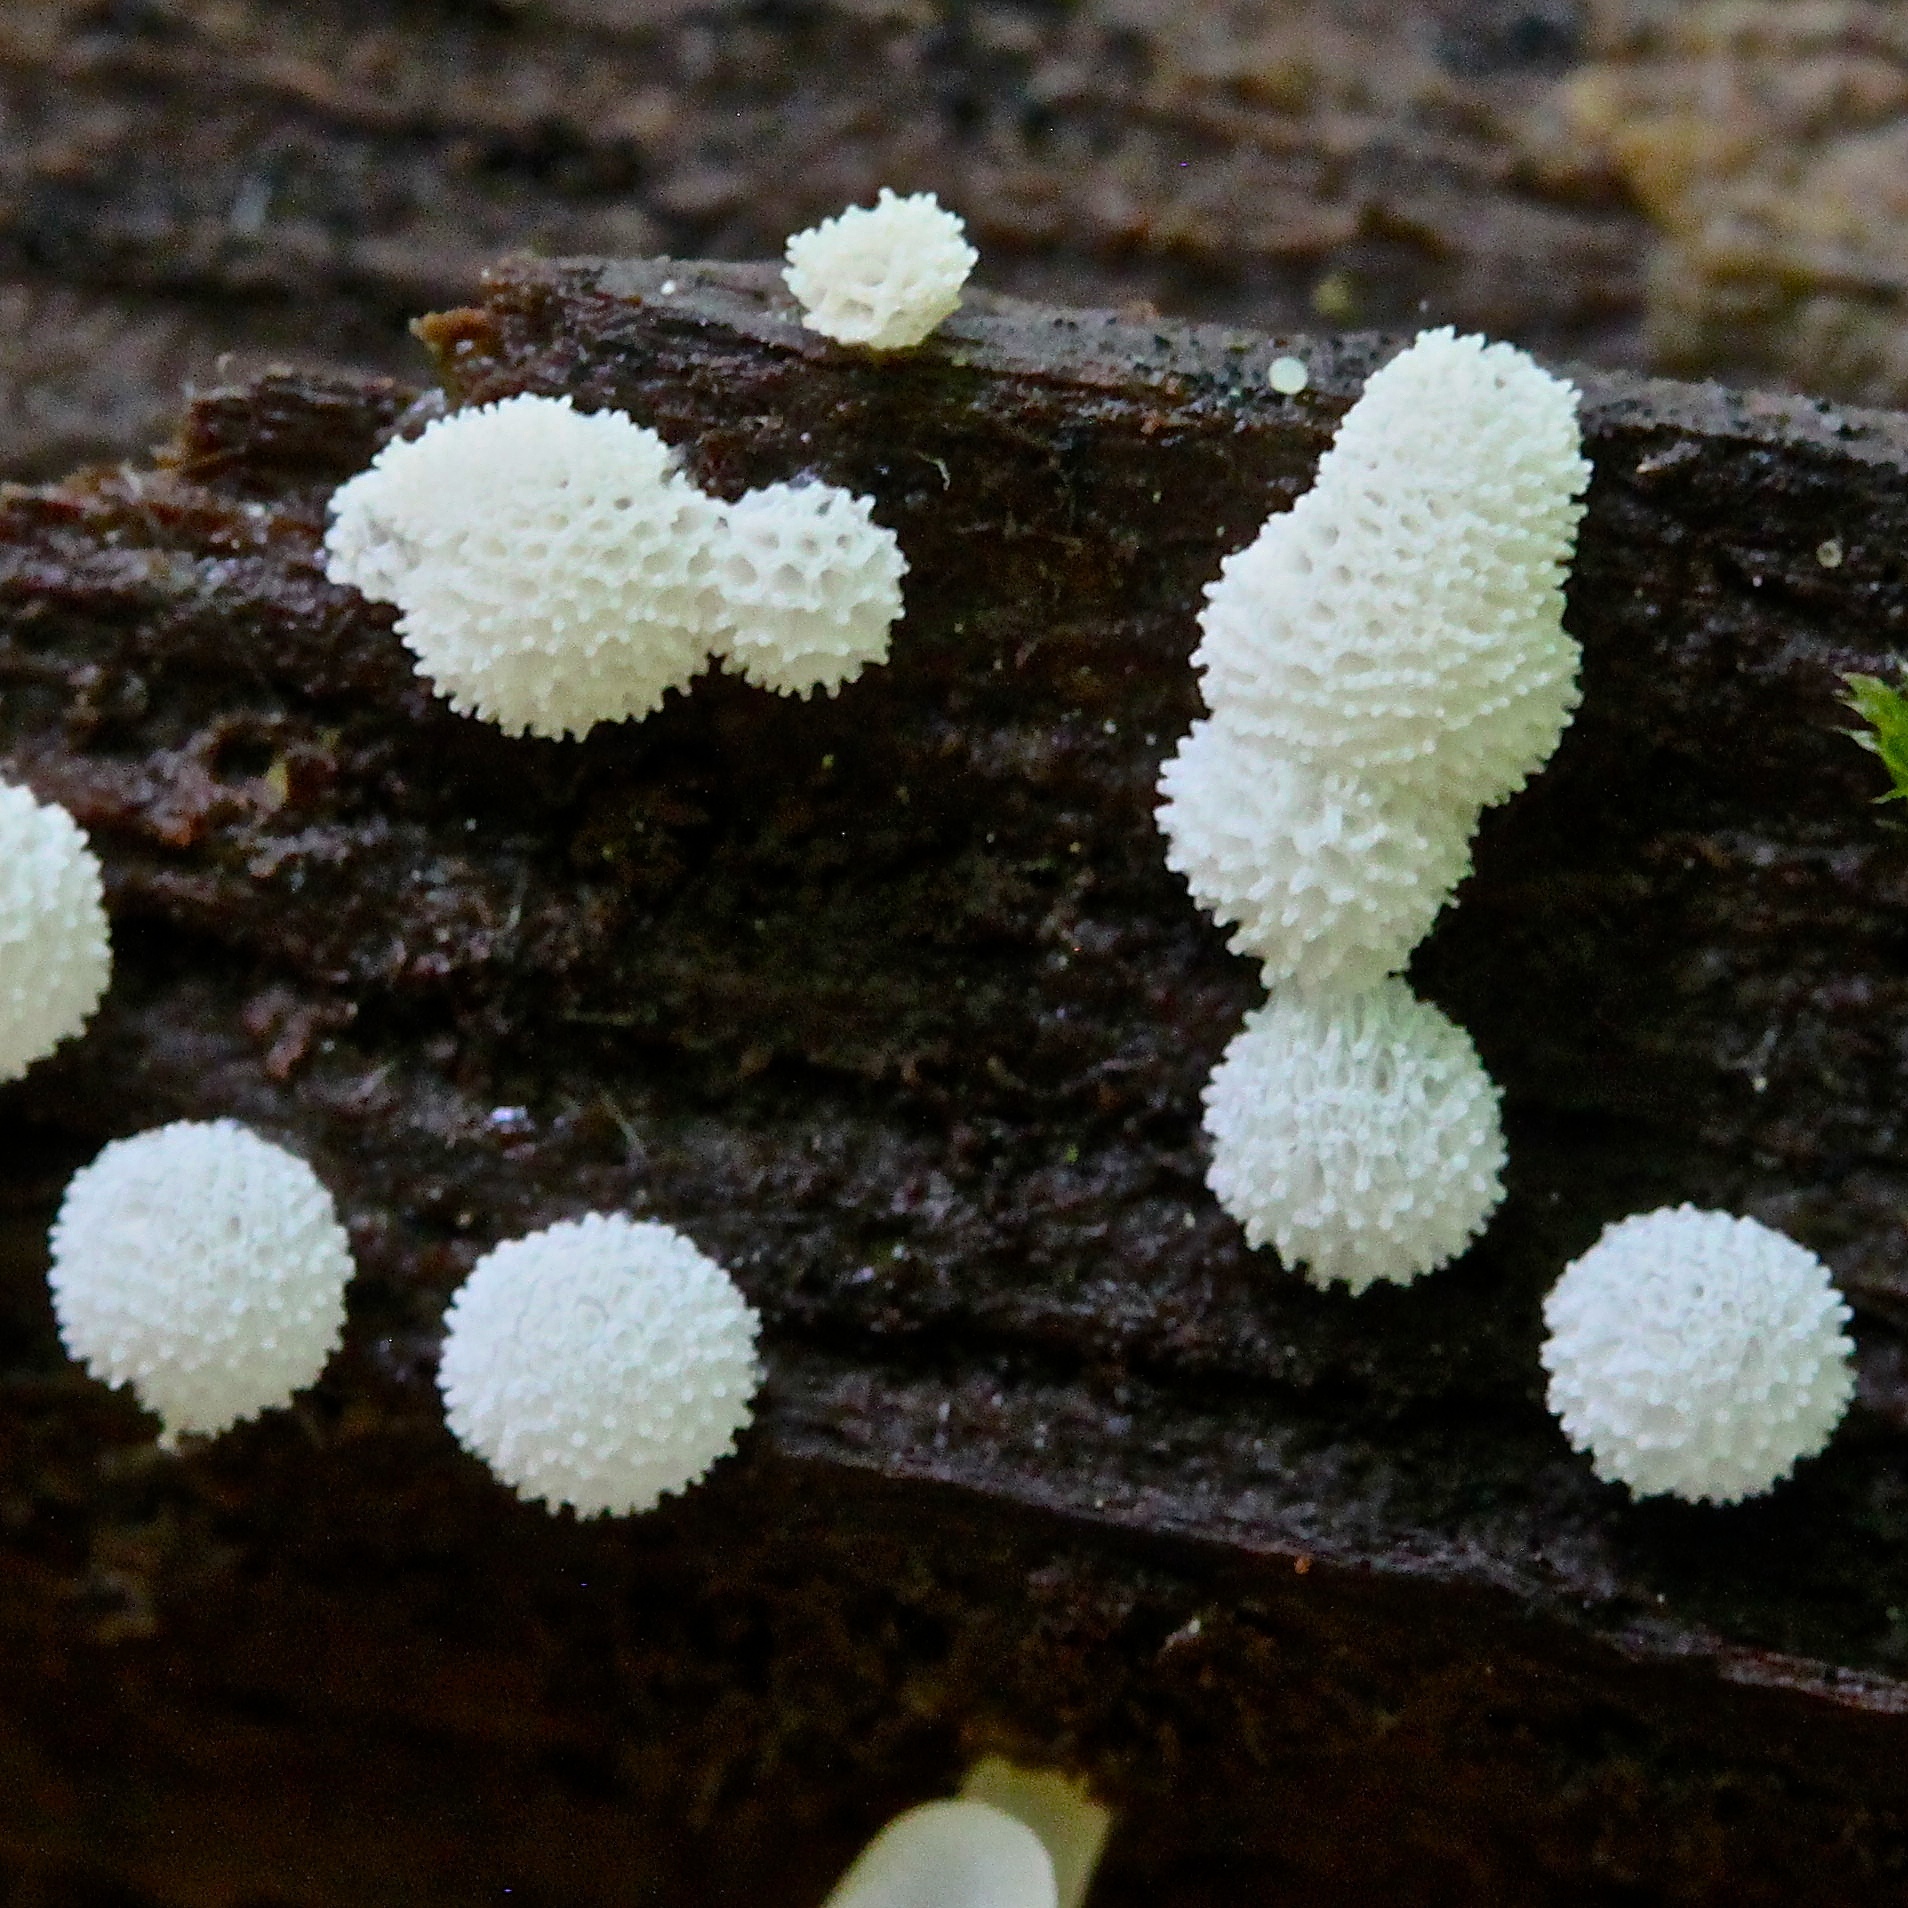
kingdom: Protozoa
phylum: Mycetozoa
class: Protosteliomycetes
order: Ceratiomyxales
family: Ceratiomyxaceae
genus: Ceratiomyxa
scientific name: Ceratiomyxa fruticulosa
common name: Honeycomb coral slime mold
